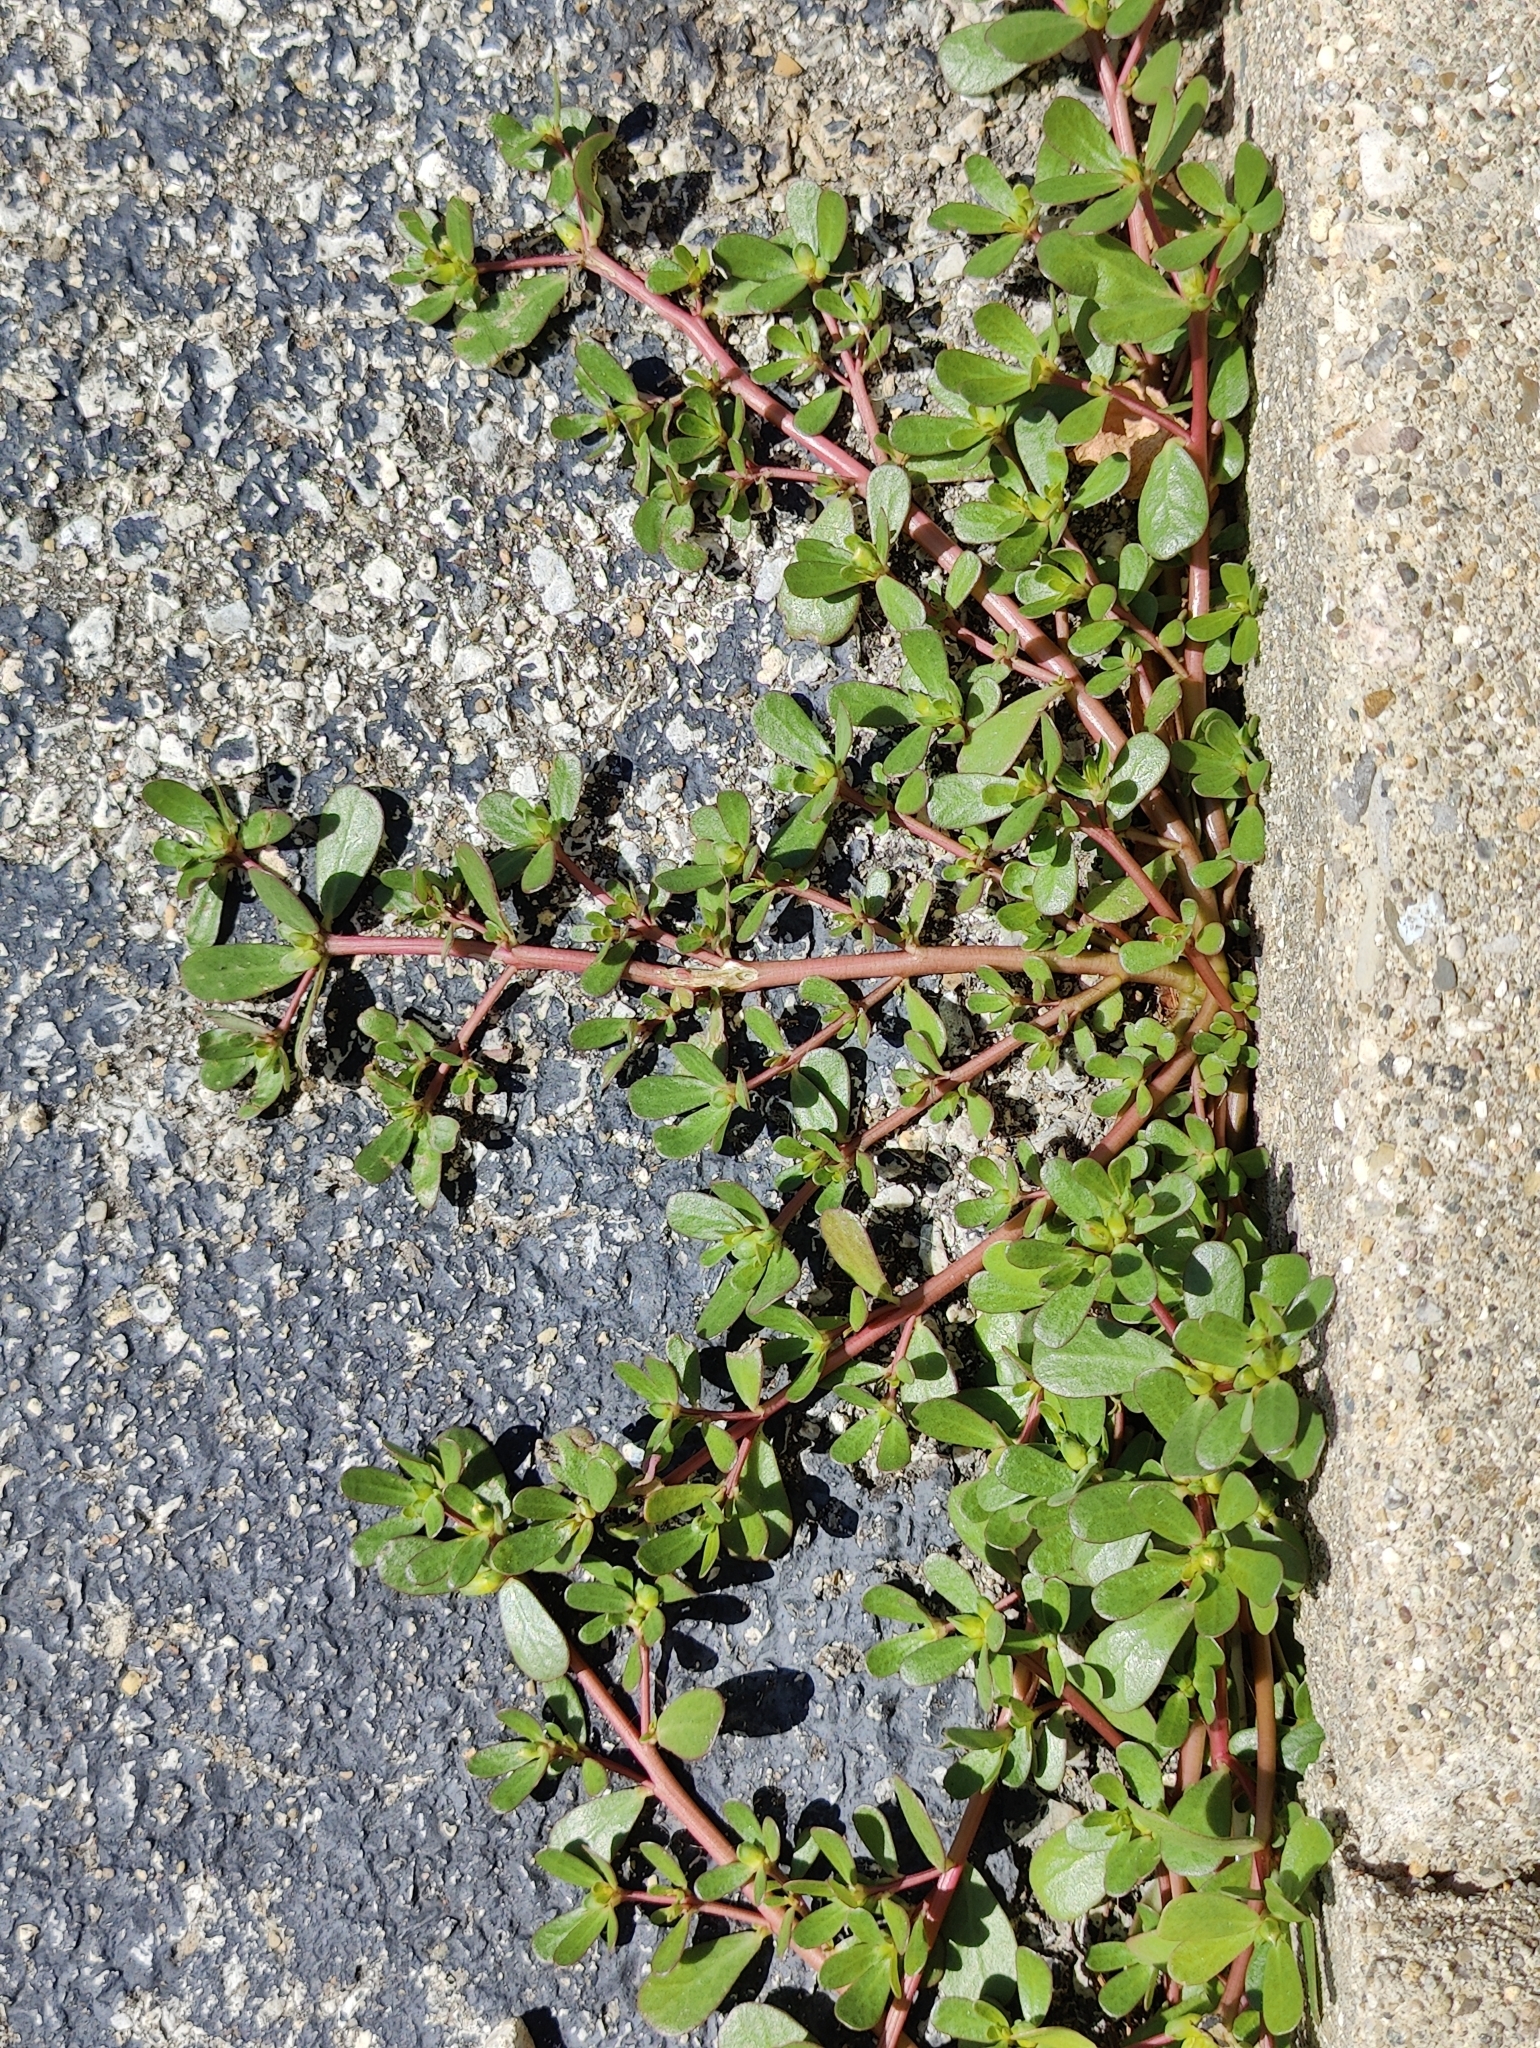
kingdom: Plantae
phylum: Tracheophyta
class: Magnoliopsida
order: Caryophyllales
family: Portulacaceae
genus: Portulaca
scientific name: Portulaca oleracea
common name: Common purslane
